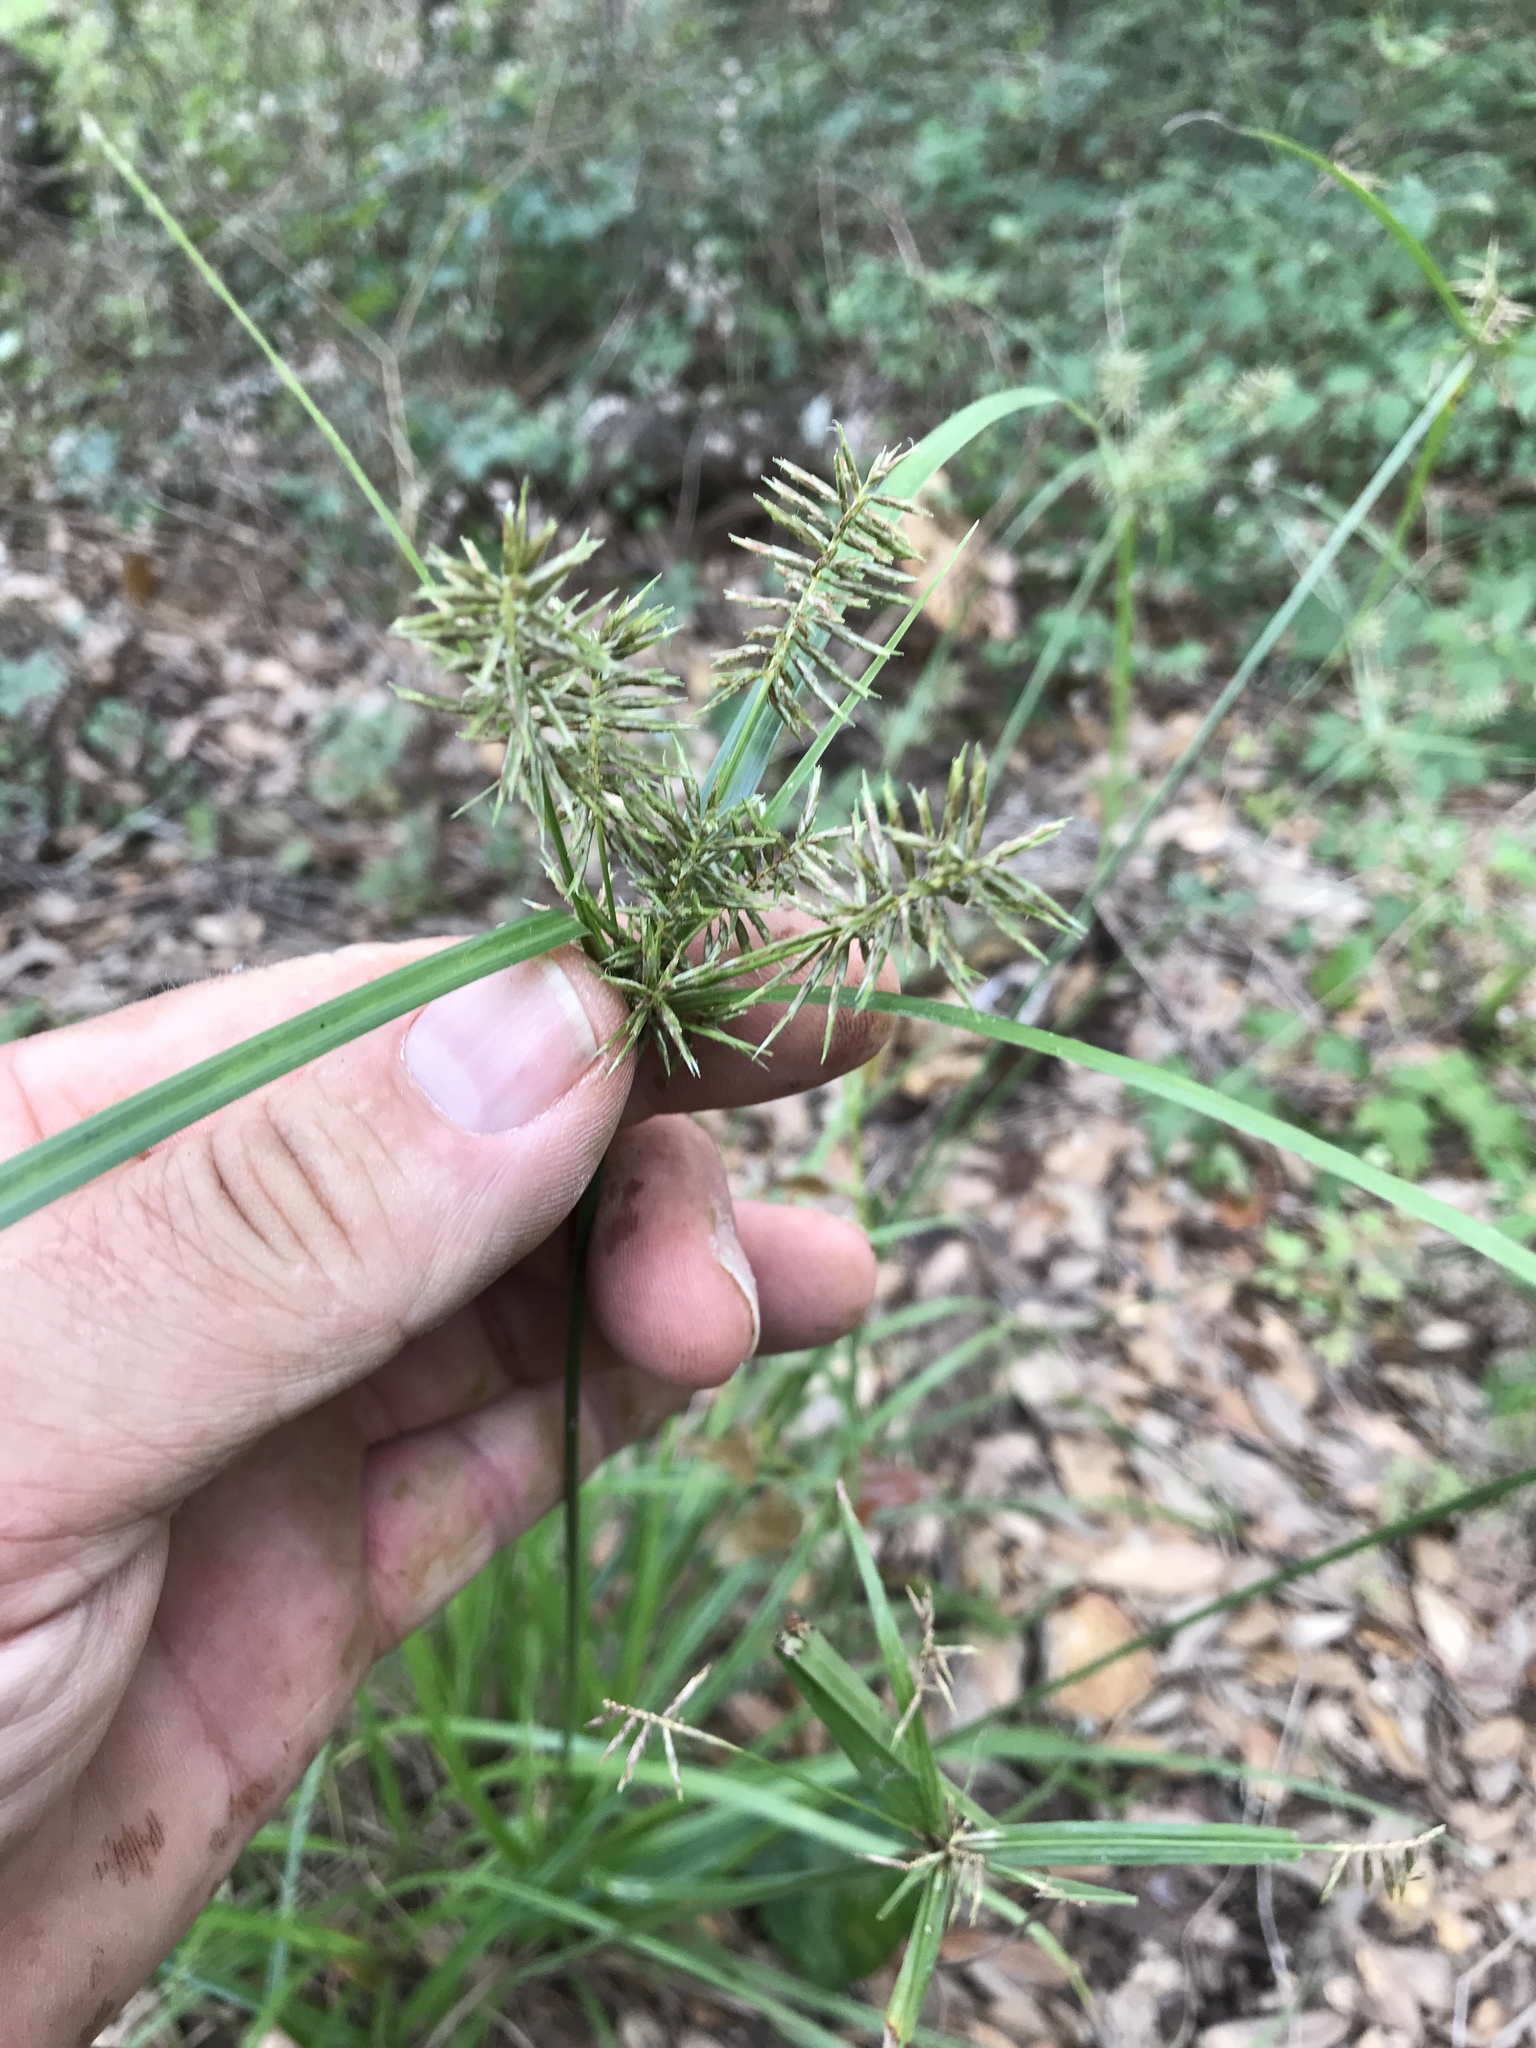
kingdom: Plantae
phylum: Tracheophyta
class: Liliopsida
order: Poales
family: Cyperaceae
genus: Cyperus
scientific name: Cyperus pseudothyrsiflorus
